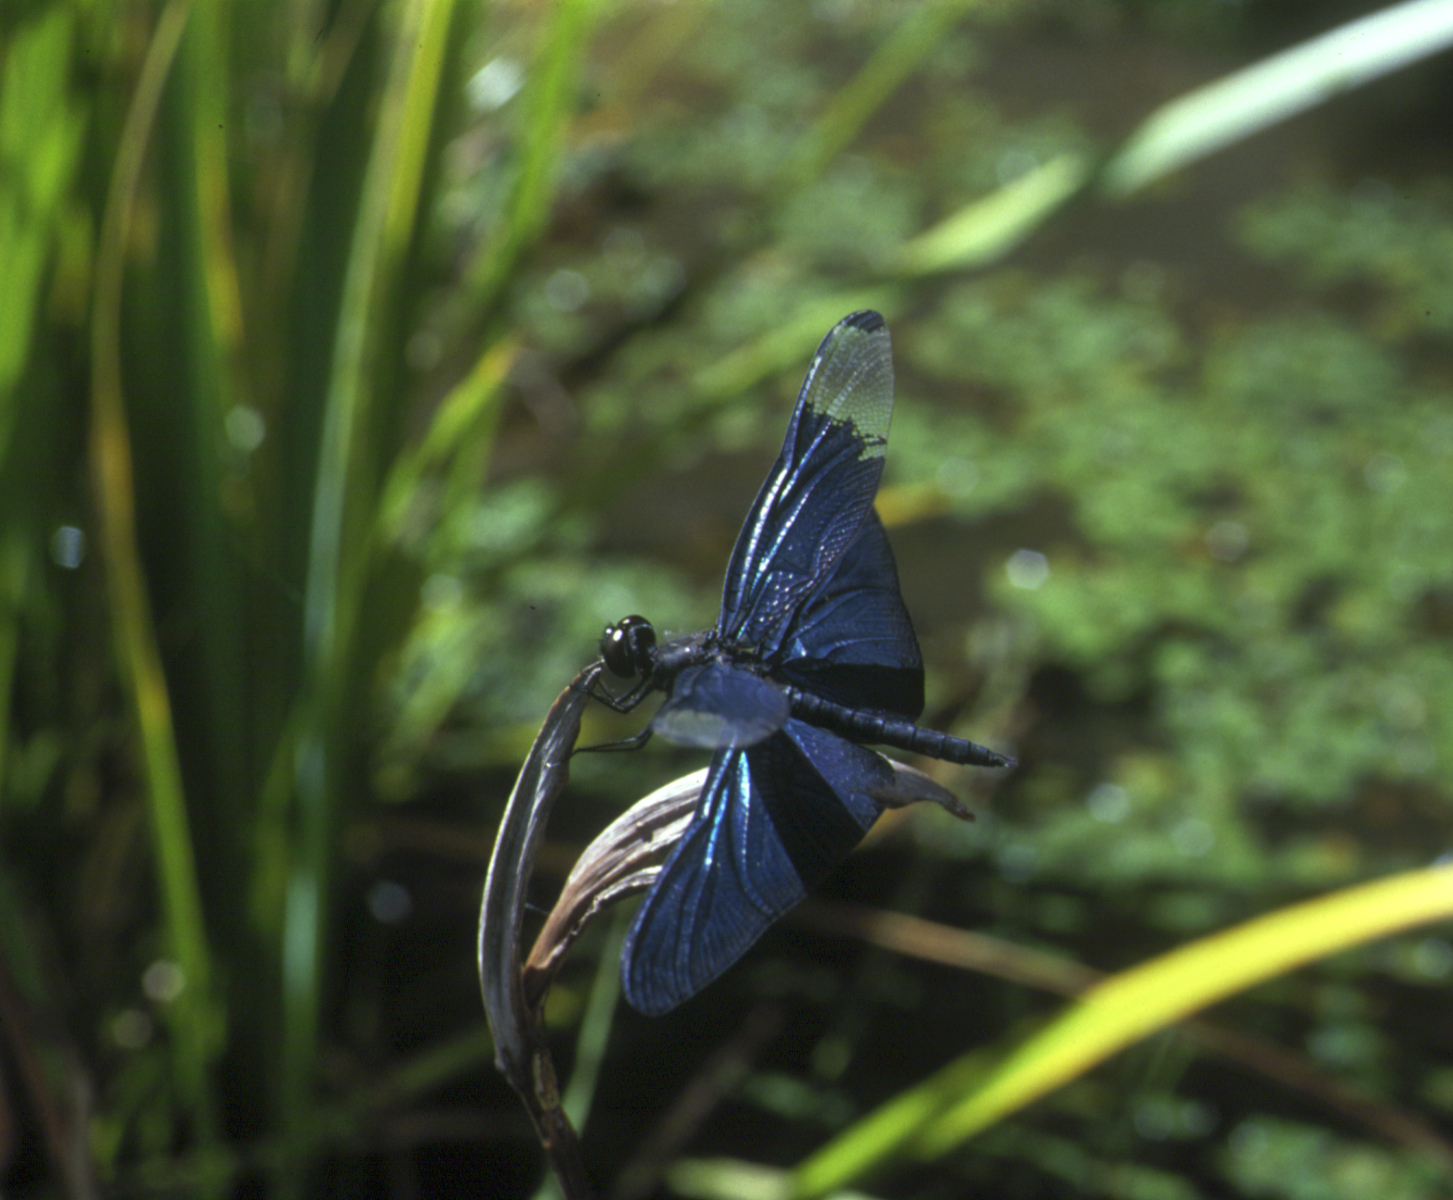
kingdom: Animalia
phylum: Arthropoda
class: Insecta
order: Odonata
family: Libellulidae
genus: Rhyothemis
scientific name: Rhyothemis fuliginosa
